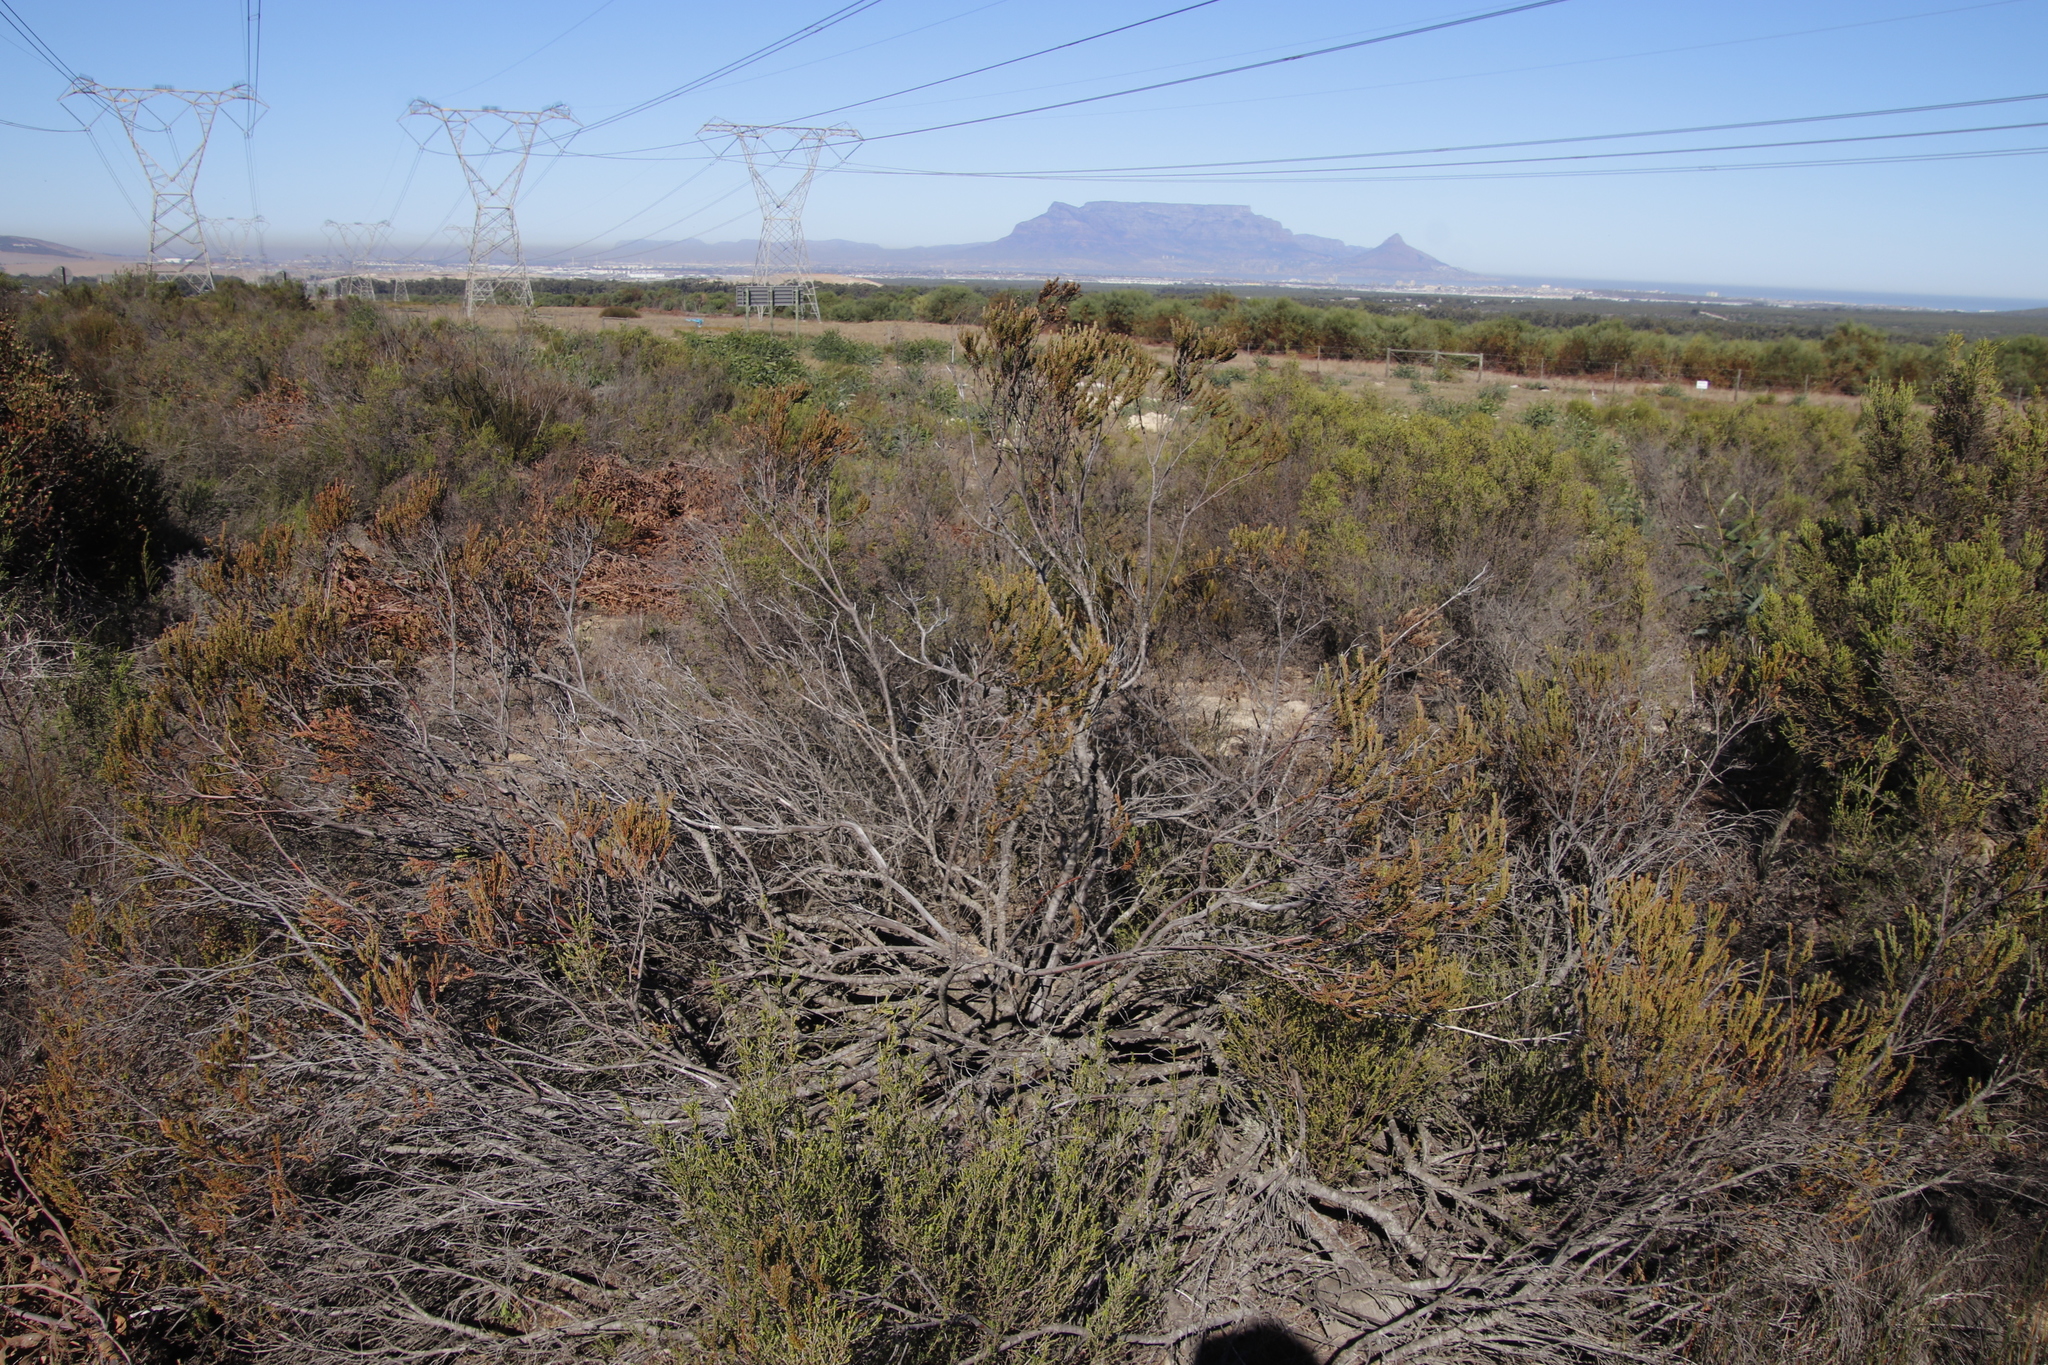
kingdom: Plantae
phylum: Tracheophyta
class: Magnoliopsida
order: Proteales
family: Proteaceae
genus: Leucadendron
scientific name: Leucadendron levisanus
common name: Cape flats conebush
